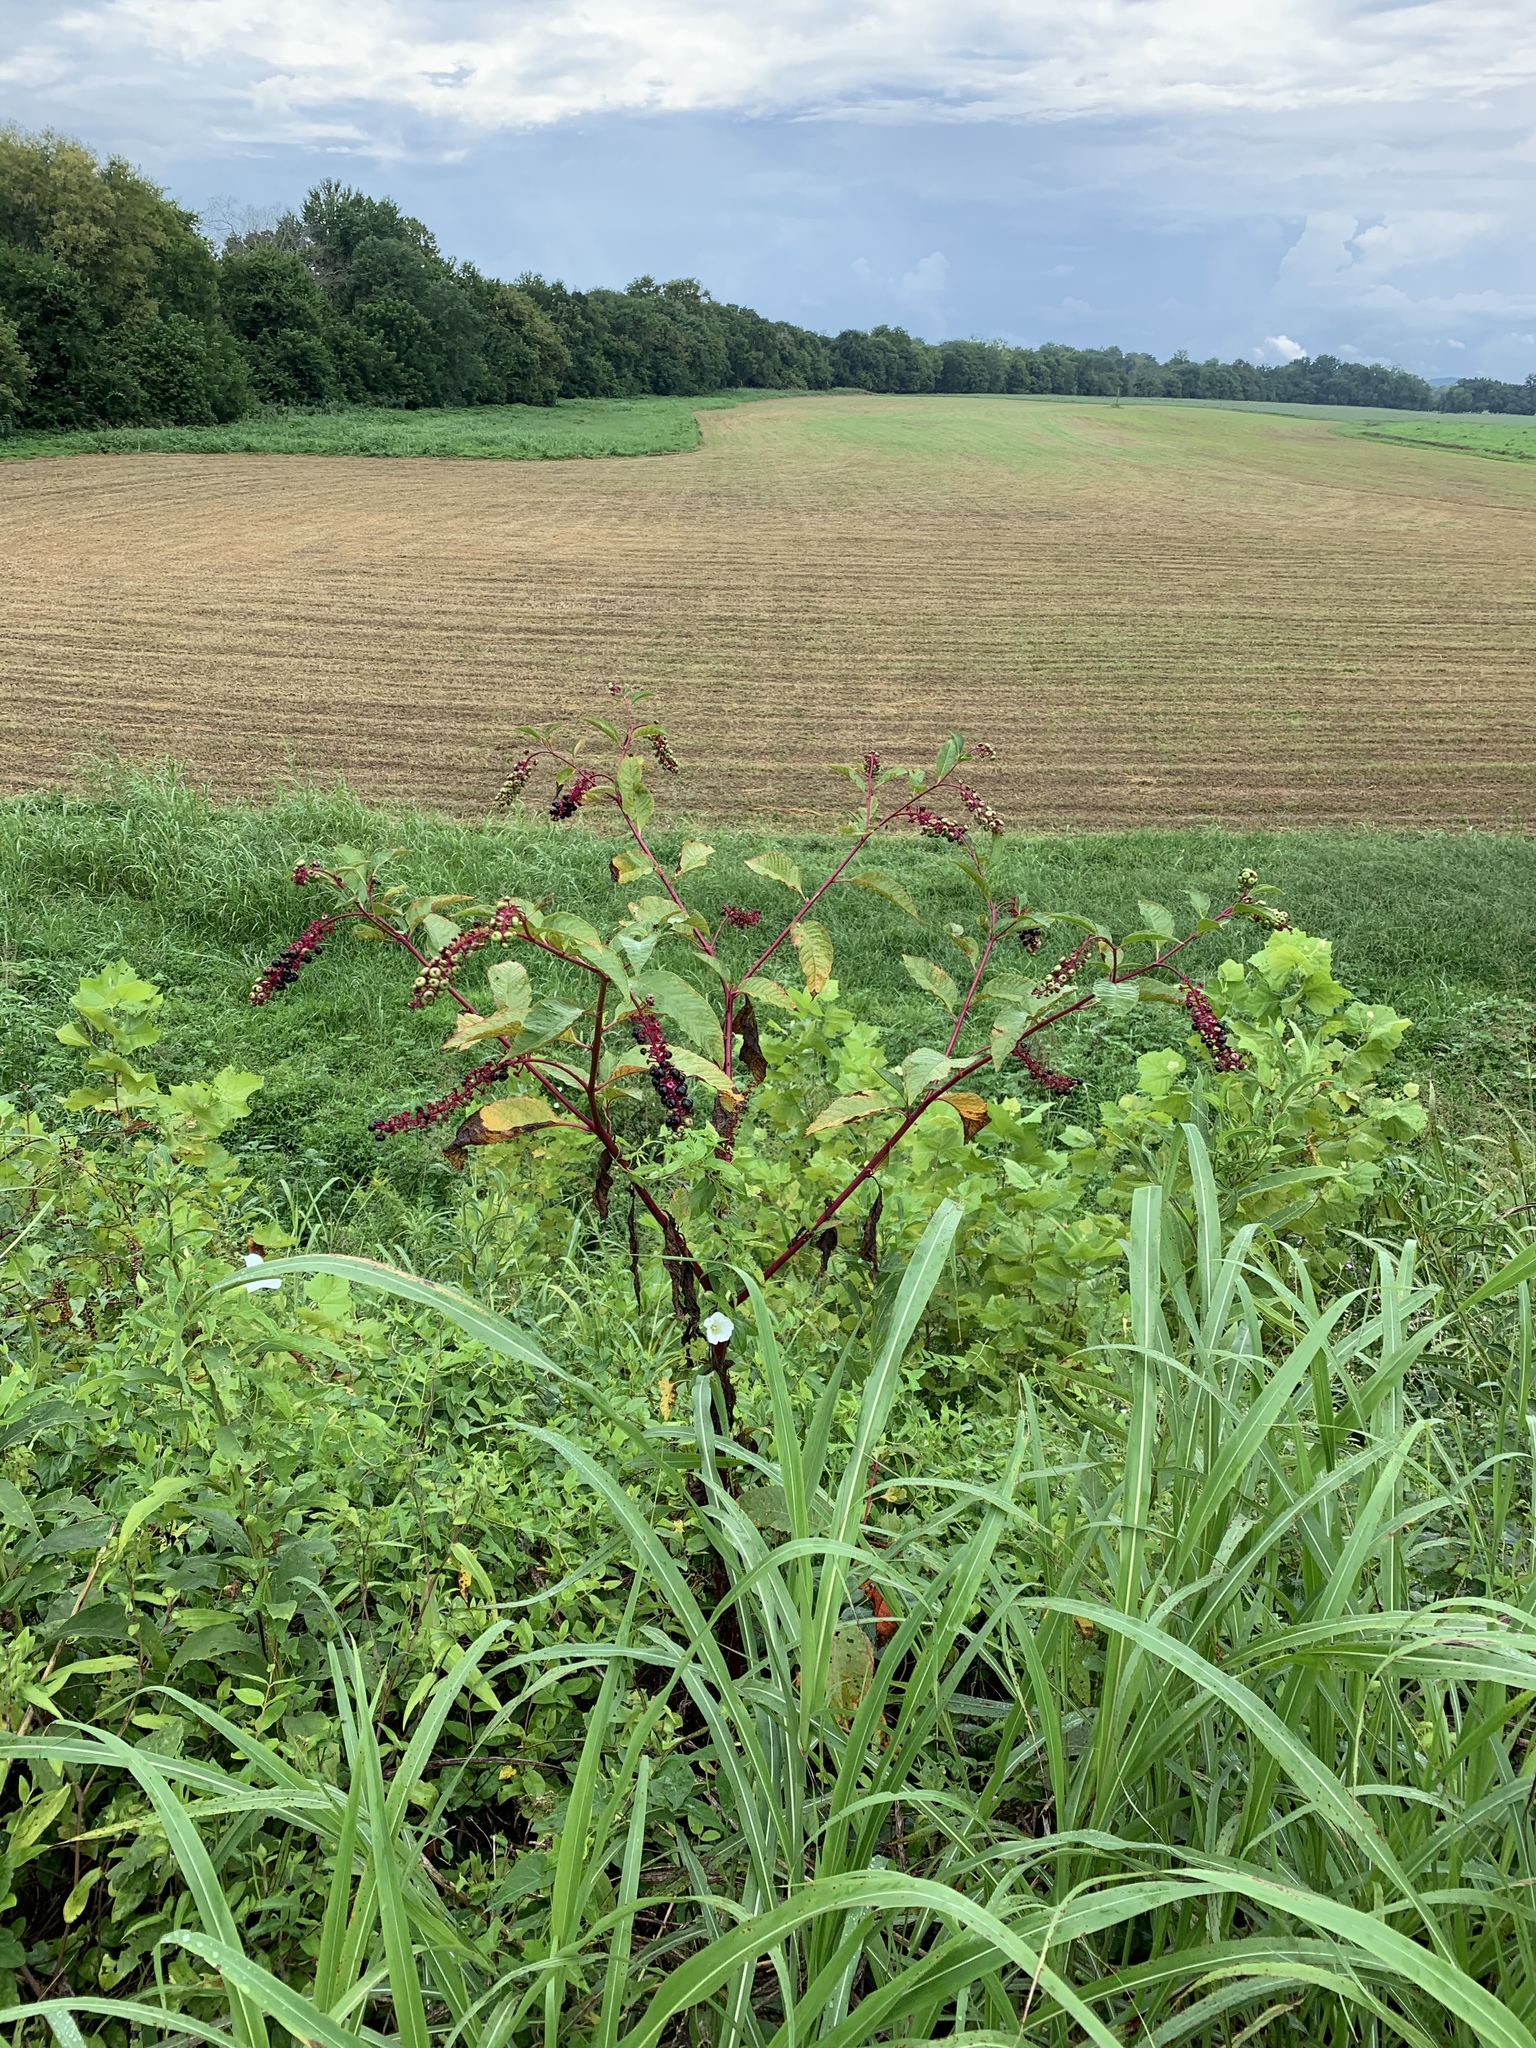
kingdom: Plantae
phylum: Tracheophyta
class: Magnoliopsida
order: Caryophyllales
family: Phytolaccaceae
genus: Phytolacca
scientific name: Phytolacca americana
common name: American pokeweed
